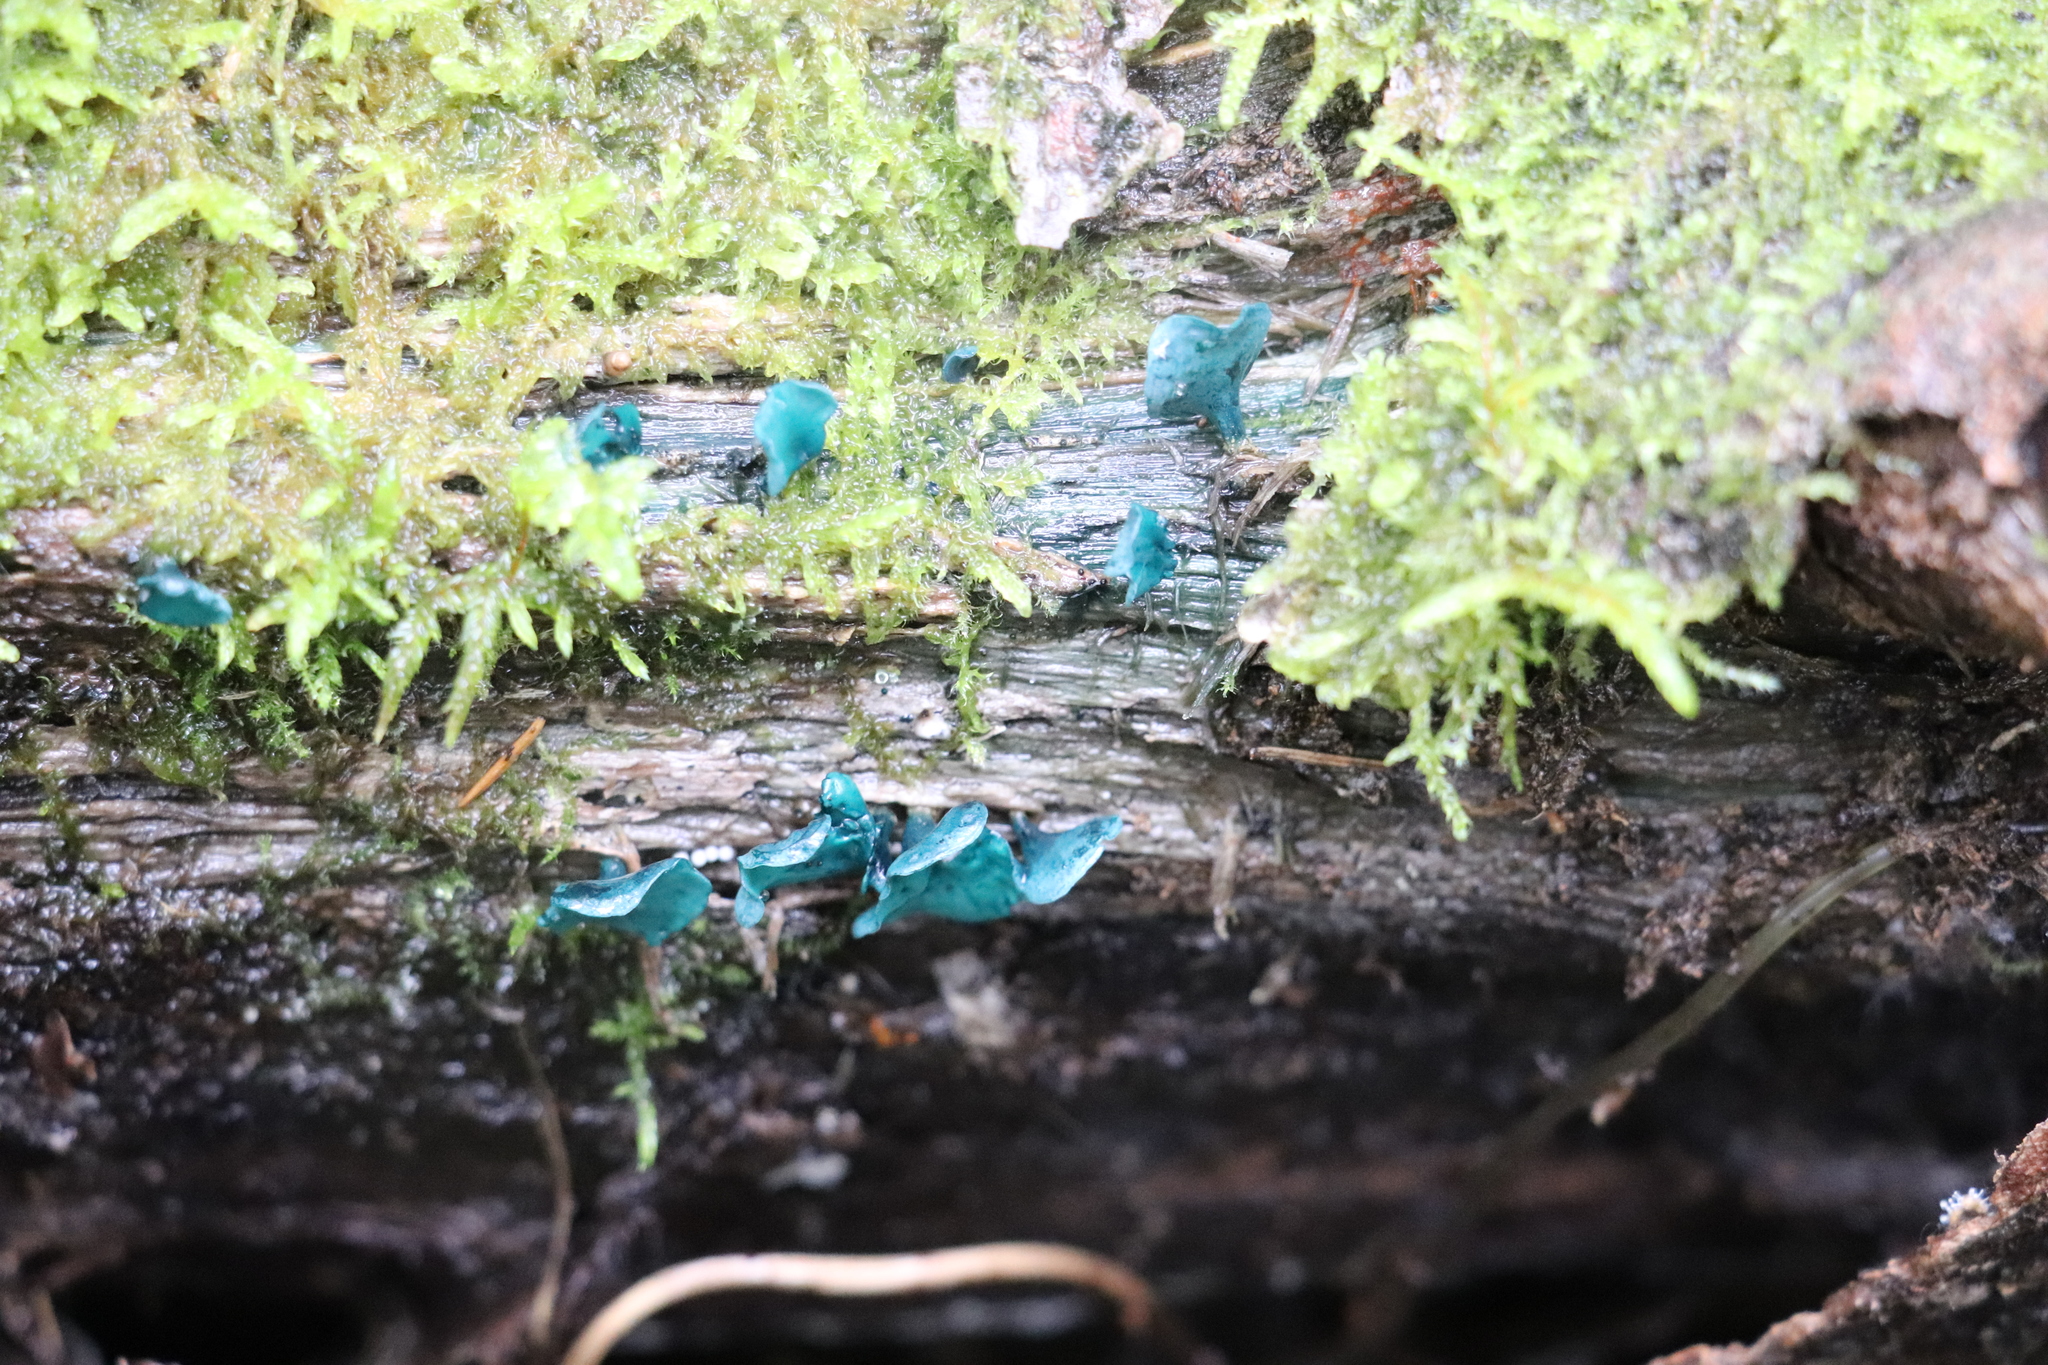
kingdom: Fungi
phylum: Ascomycota
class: Leotiomycetes
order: Helotiales
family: Chlorociboriaceae
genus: Chlorociboria
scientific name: Chlorociboria aeruginascens
